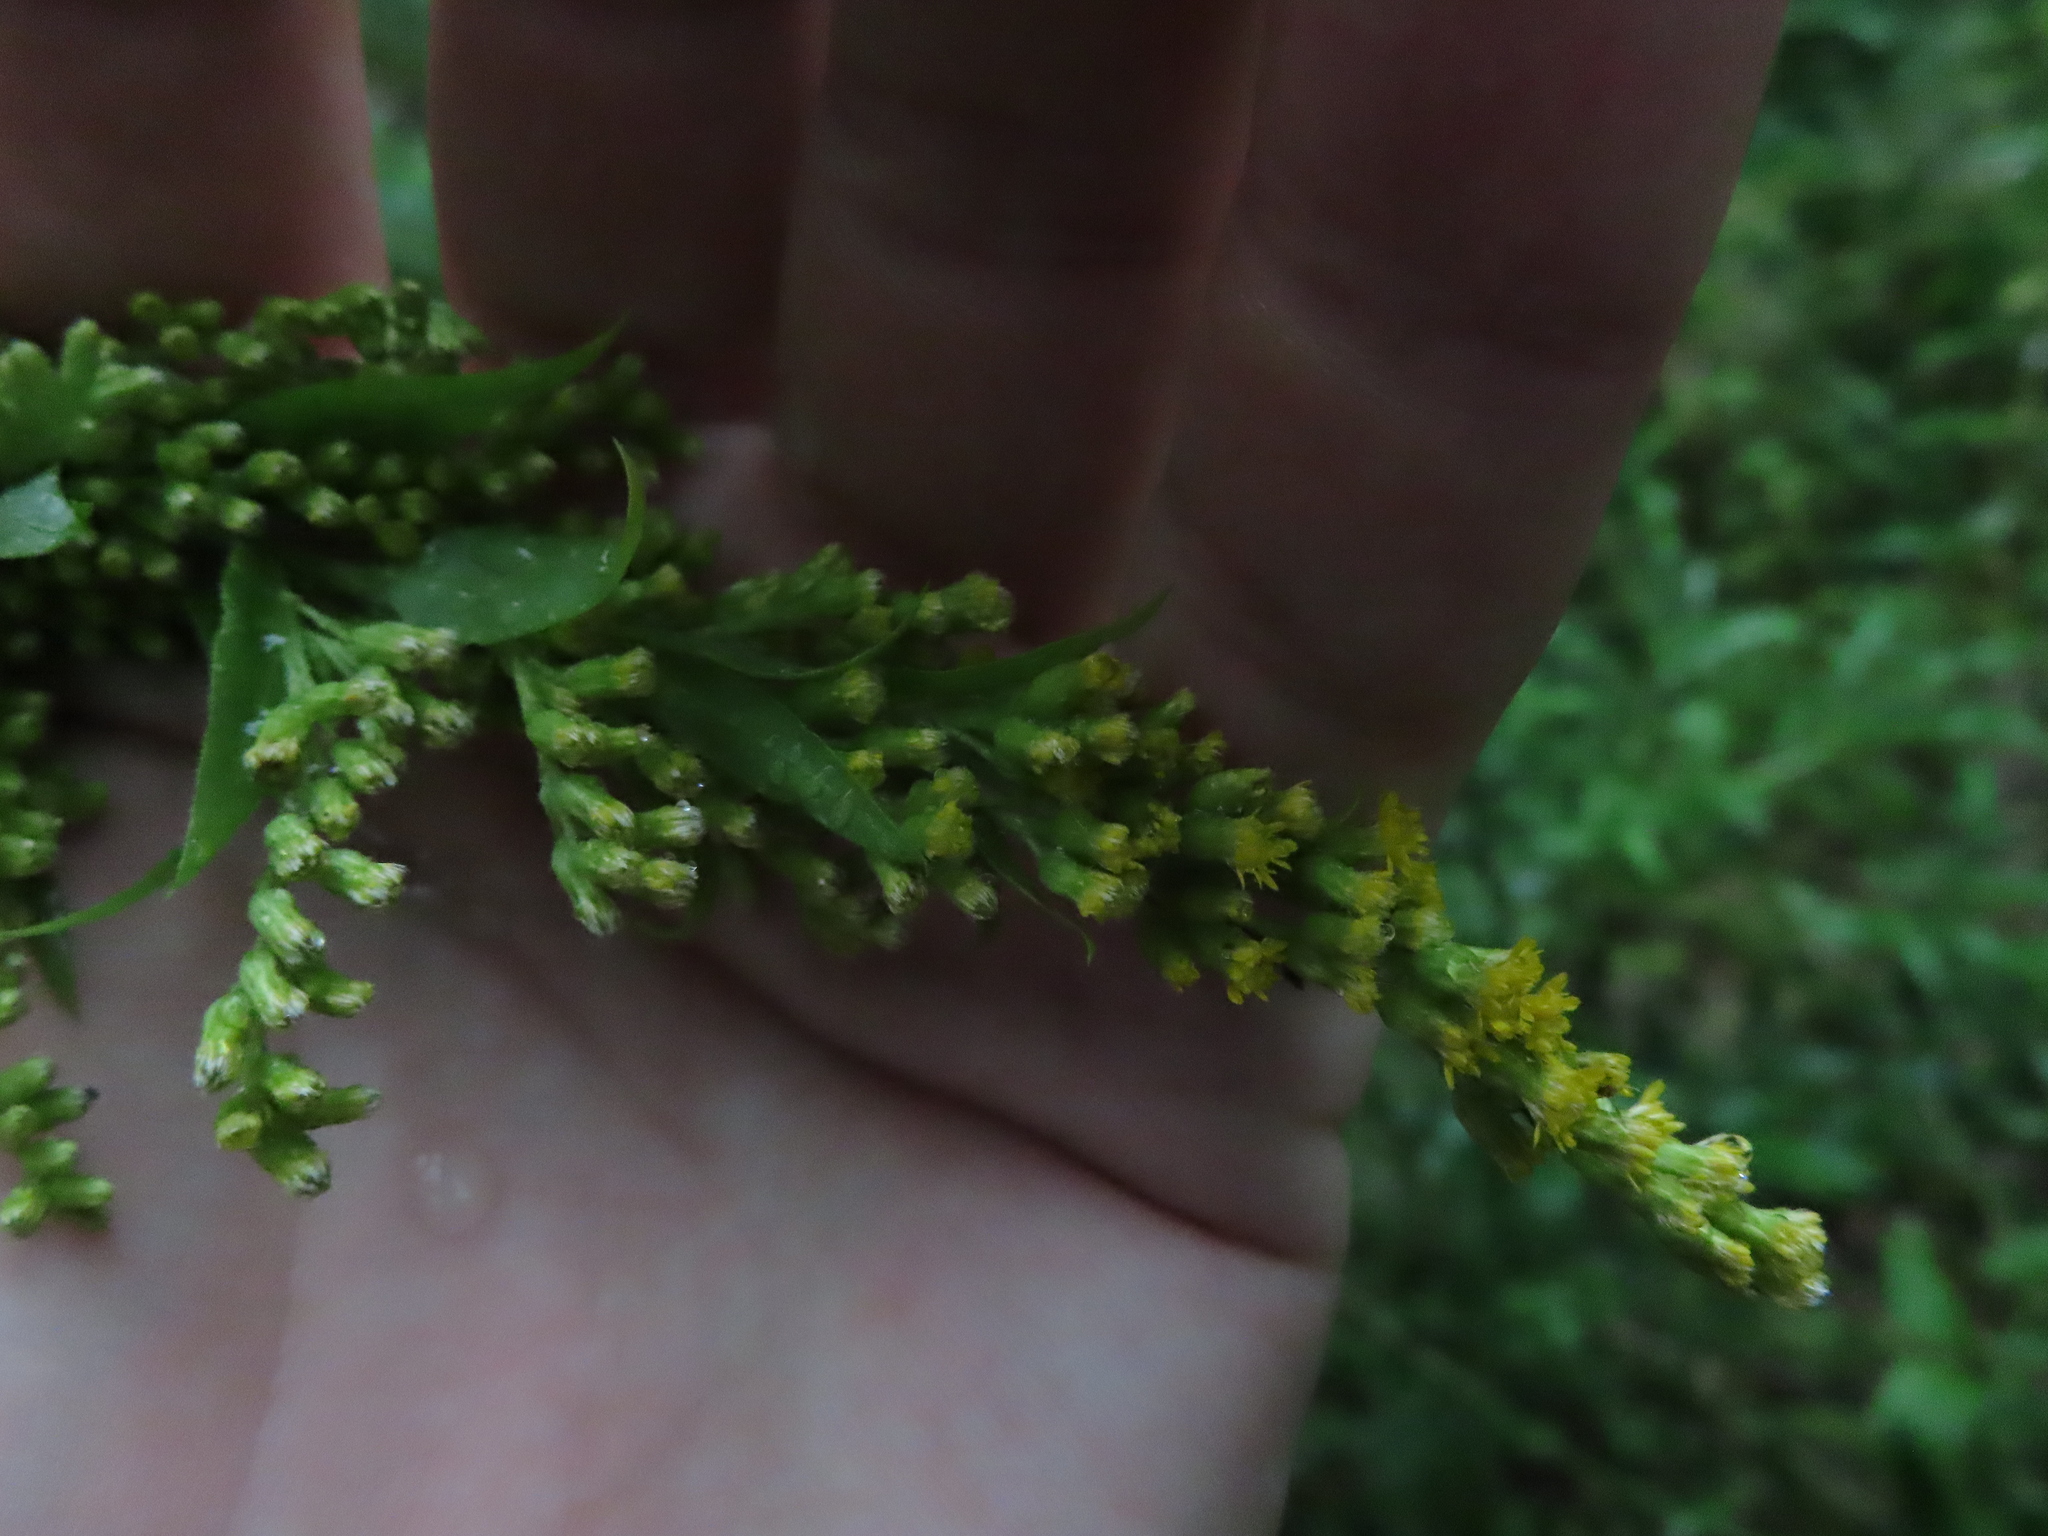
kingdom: Plantae
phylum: Tracheophyta
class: Magnoliopsida
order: Asterales
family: Asteraceae
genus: Solidago
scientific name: Solidago gigantea
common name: Giant goldenrod
